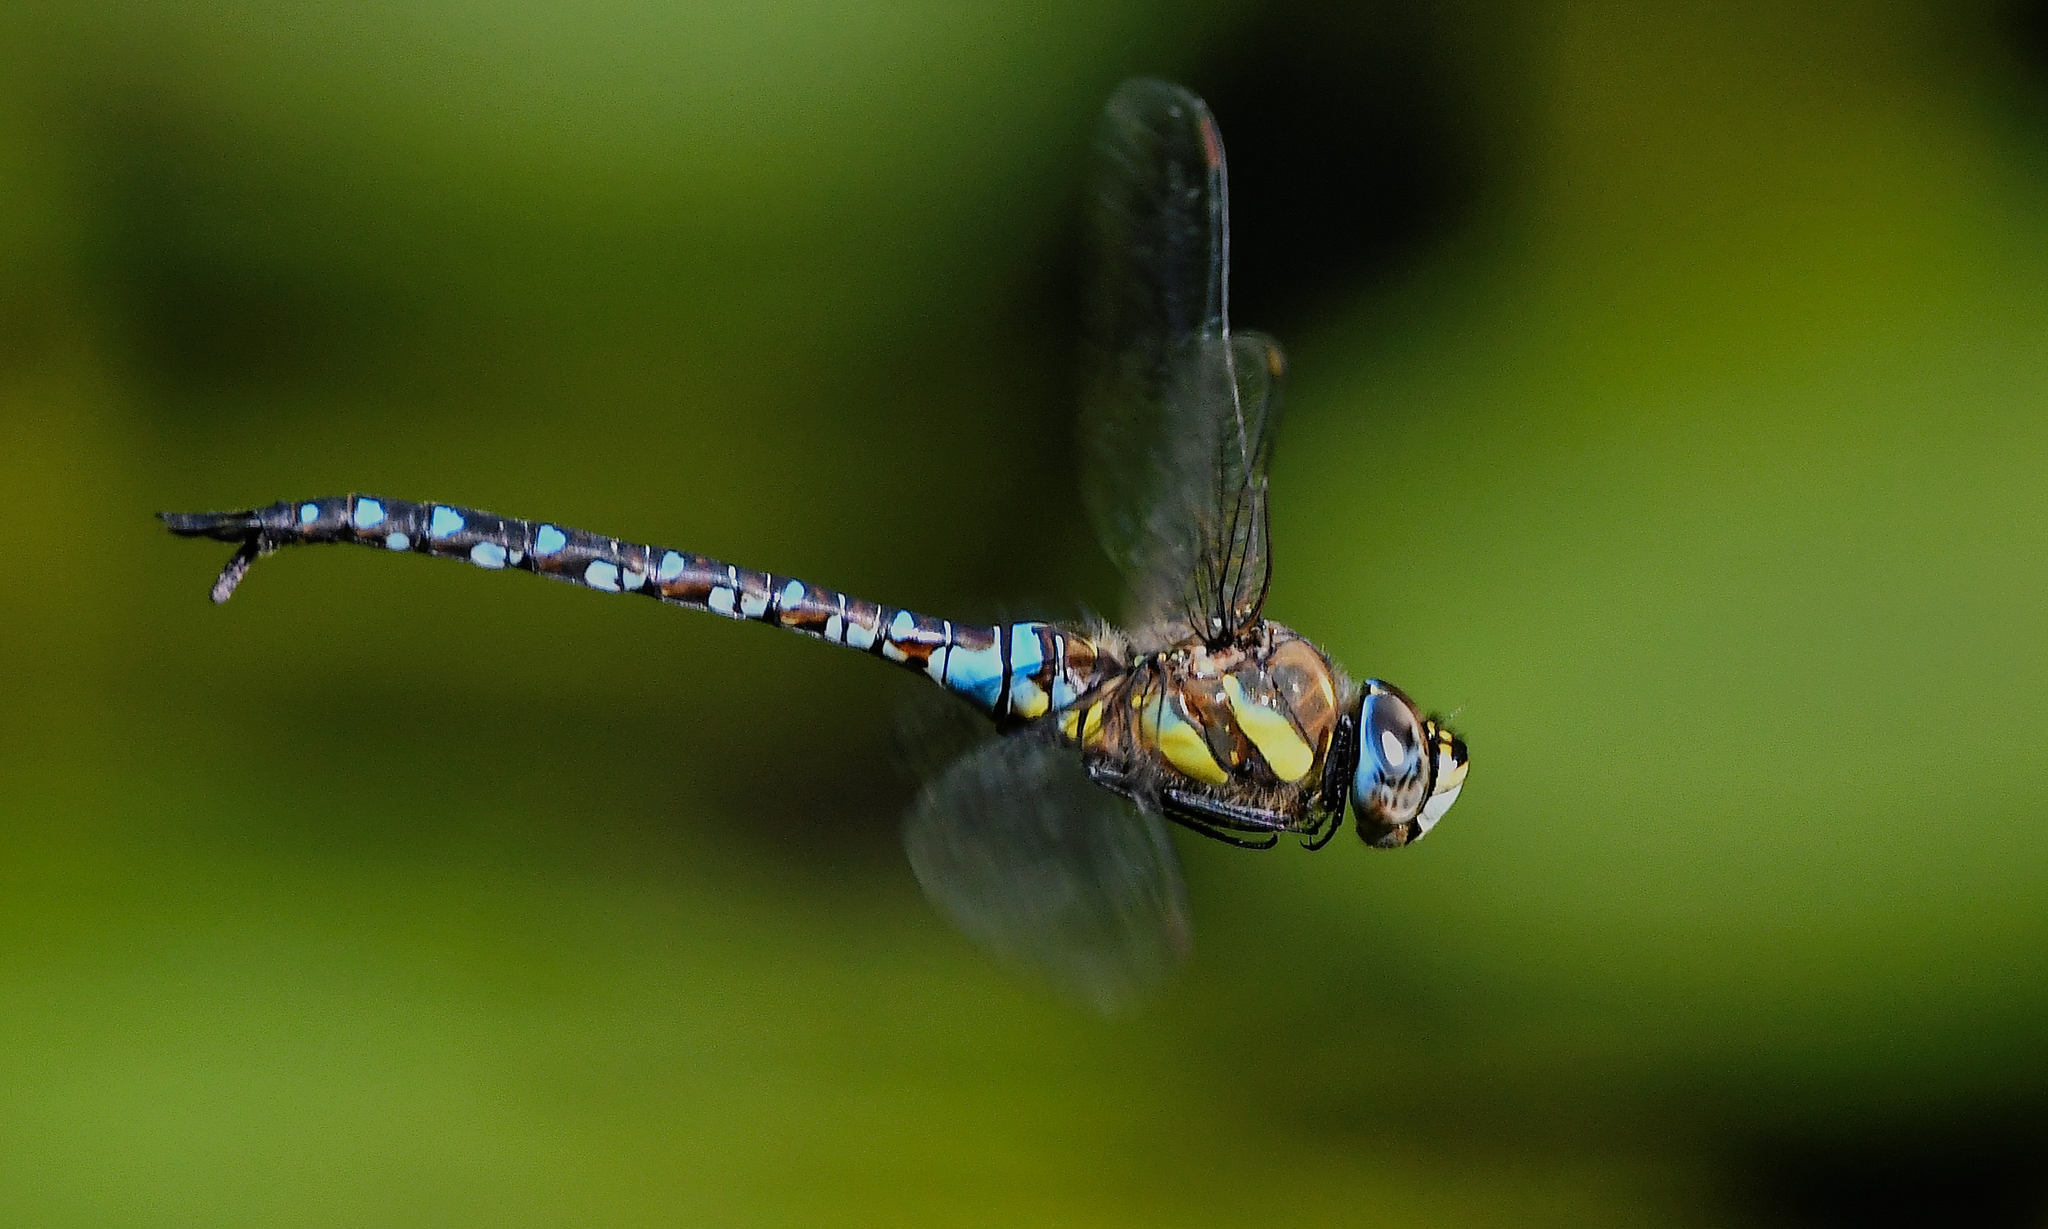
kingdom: Animalia
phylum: Arthropoda
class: Insecta
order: Odonata
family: Aeshnidae
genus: Aeshna
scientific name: Aeshna mixta
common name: Migrant hawker
